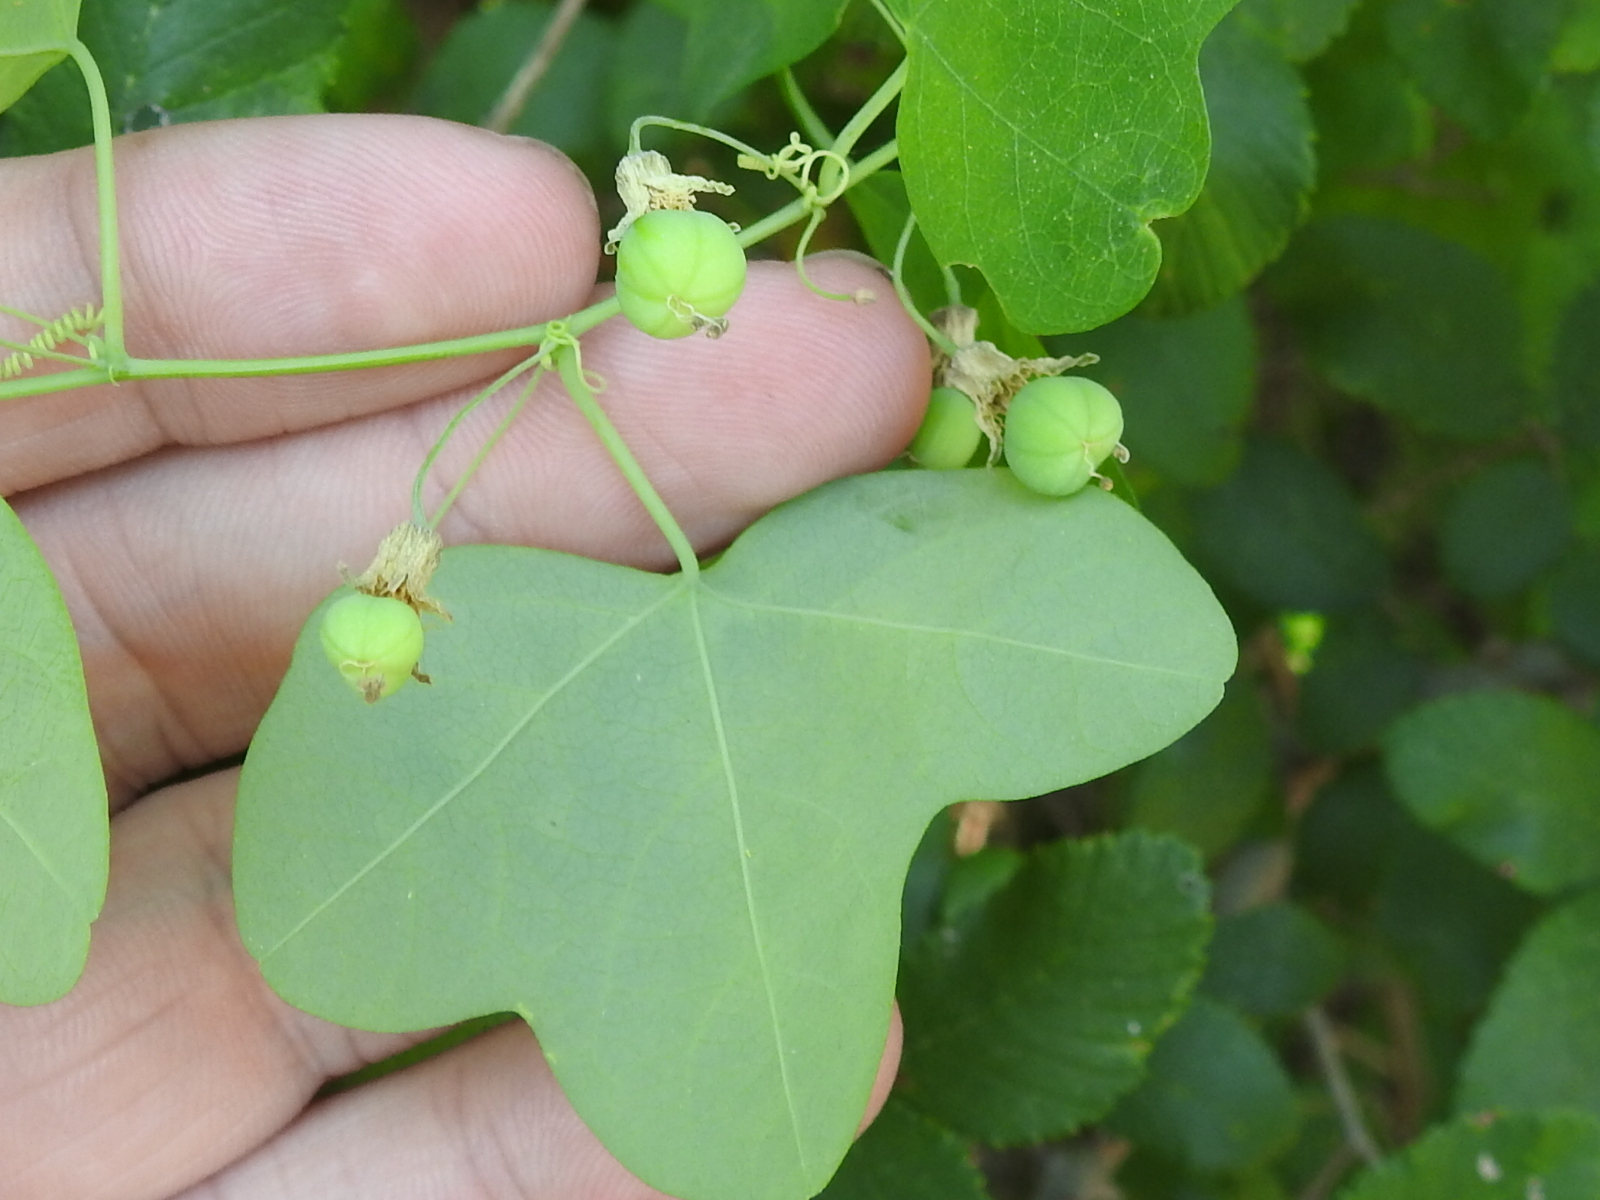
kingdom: Plantae
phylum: Tracheophyta
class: Magnoliopsida
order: Malpighiales
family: Passifloraceae
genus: Passiflora
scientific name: Passiflora lutea
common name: Yellow passionflower
